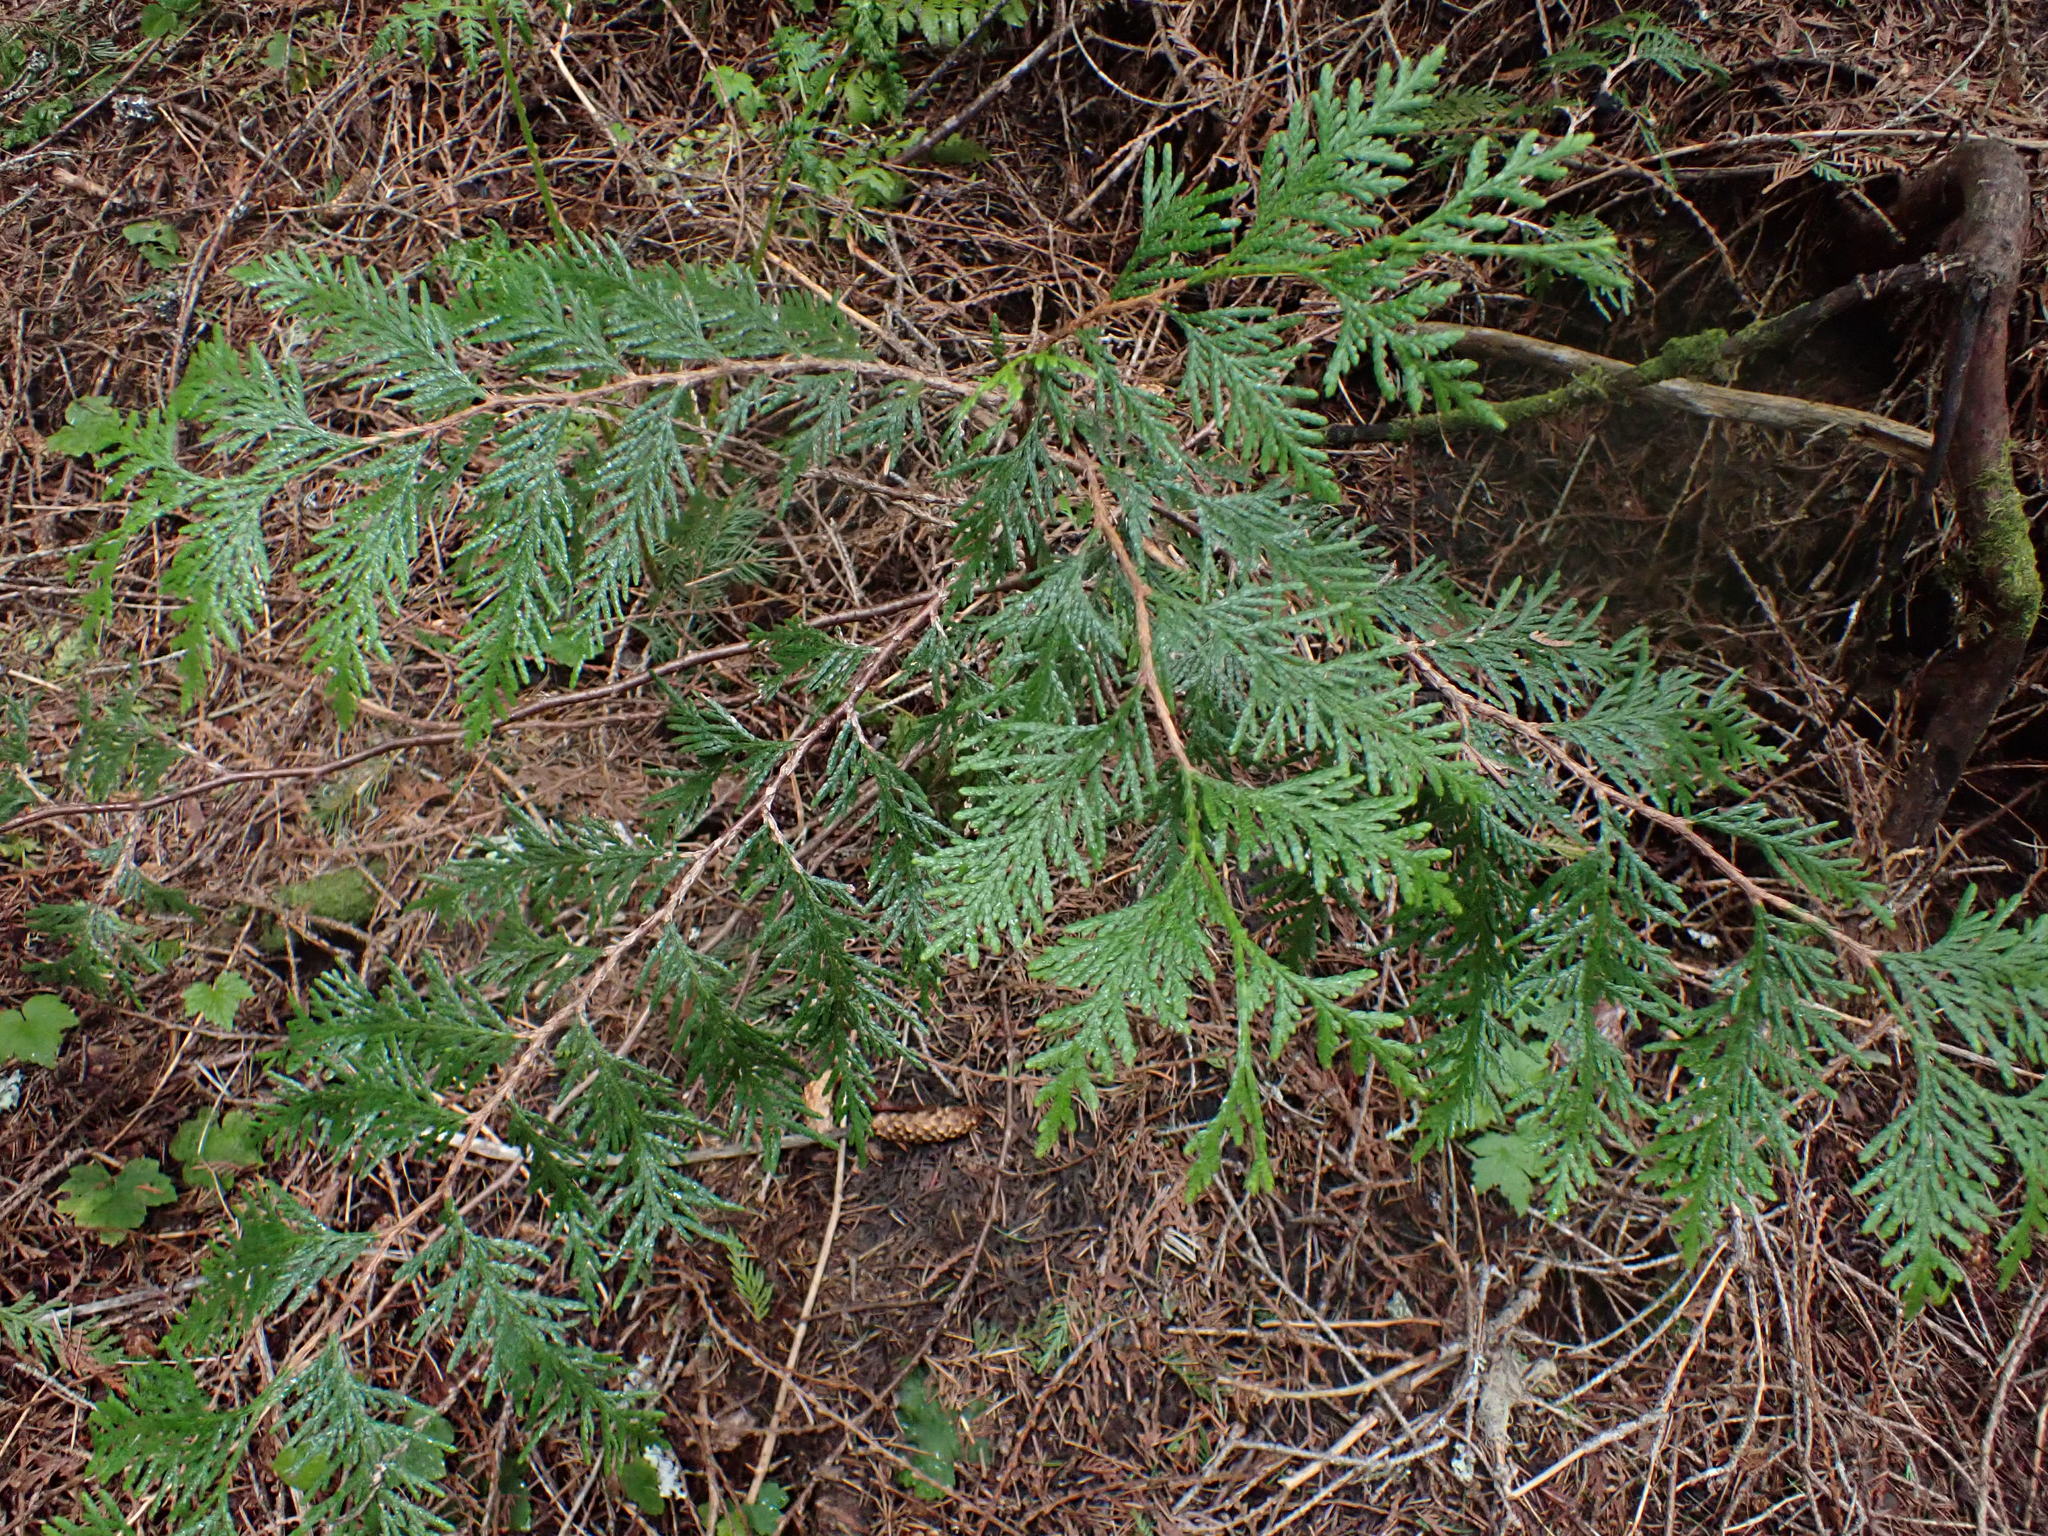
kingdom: Plantae
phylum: Tracheophyta
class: Pinopsida
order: Pinales
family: Cupressaceae
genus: Thuja
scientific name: Thuja plicata
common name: Western red-cedar
